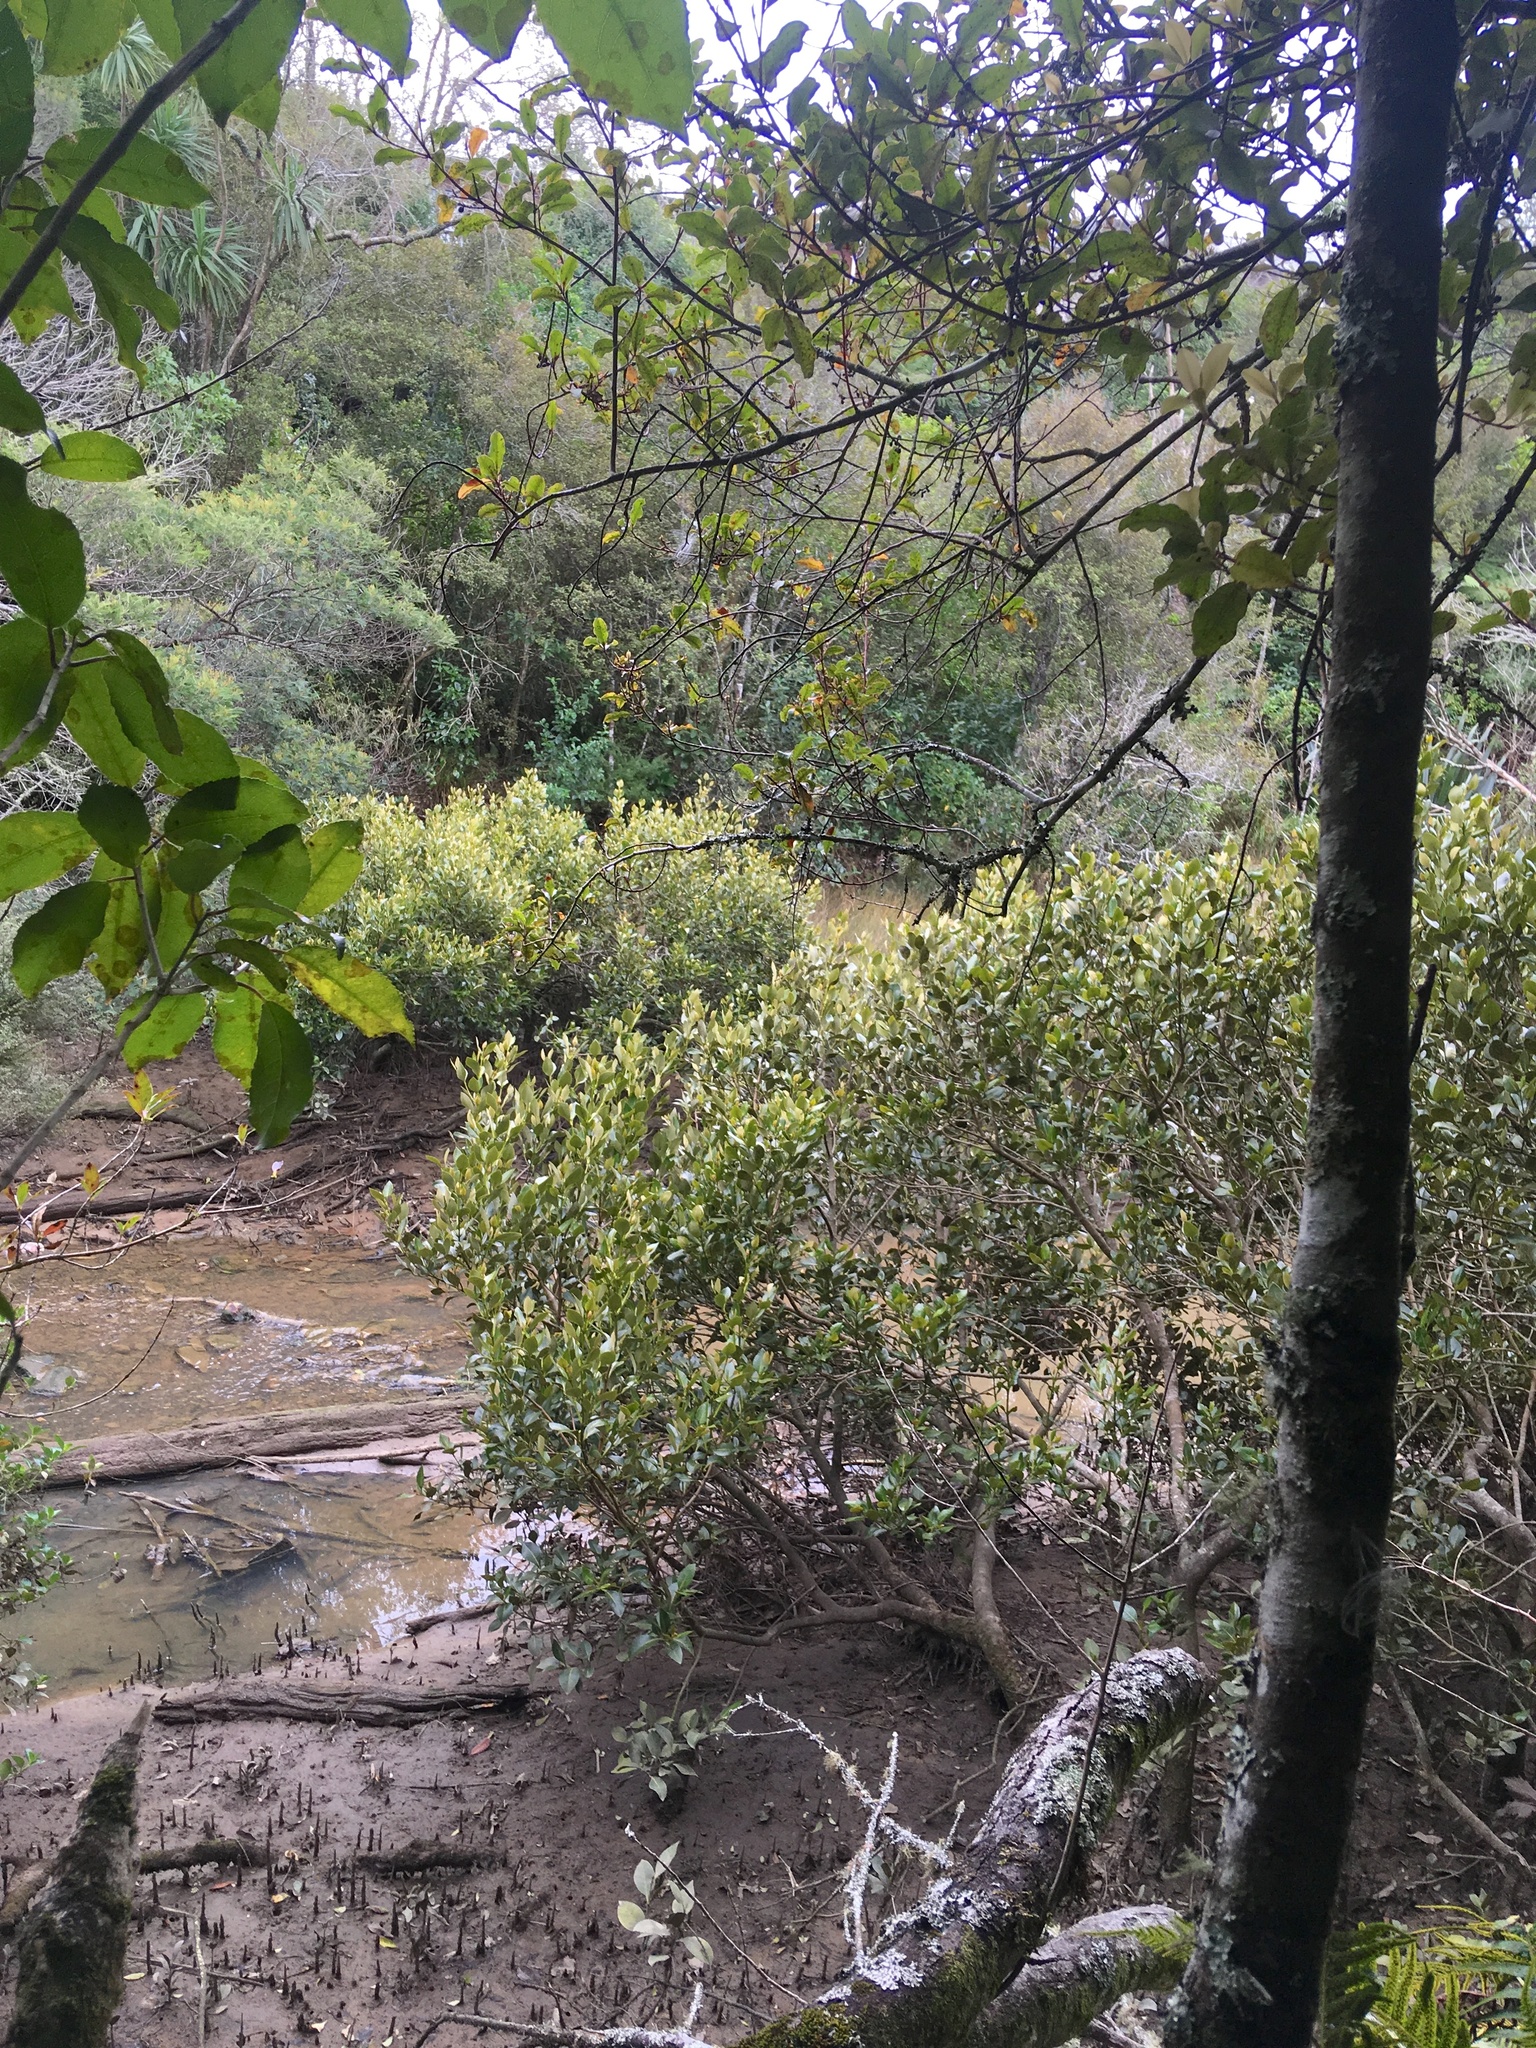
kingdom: Plantae
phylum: Tracheophyta
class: Magnoliopsida
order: Lamiales
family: Acanthaceae
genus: Avicennia
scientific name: Avicennia marina
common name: Gray mangrove
